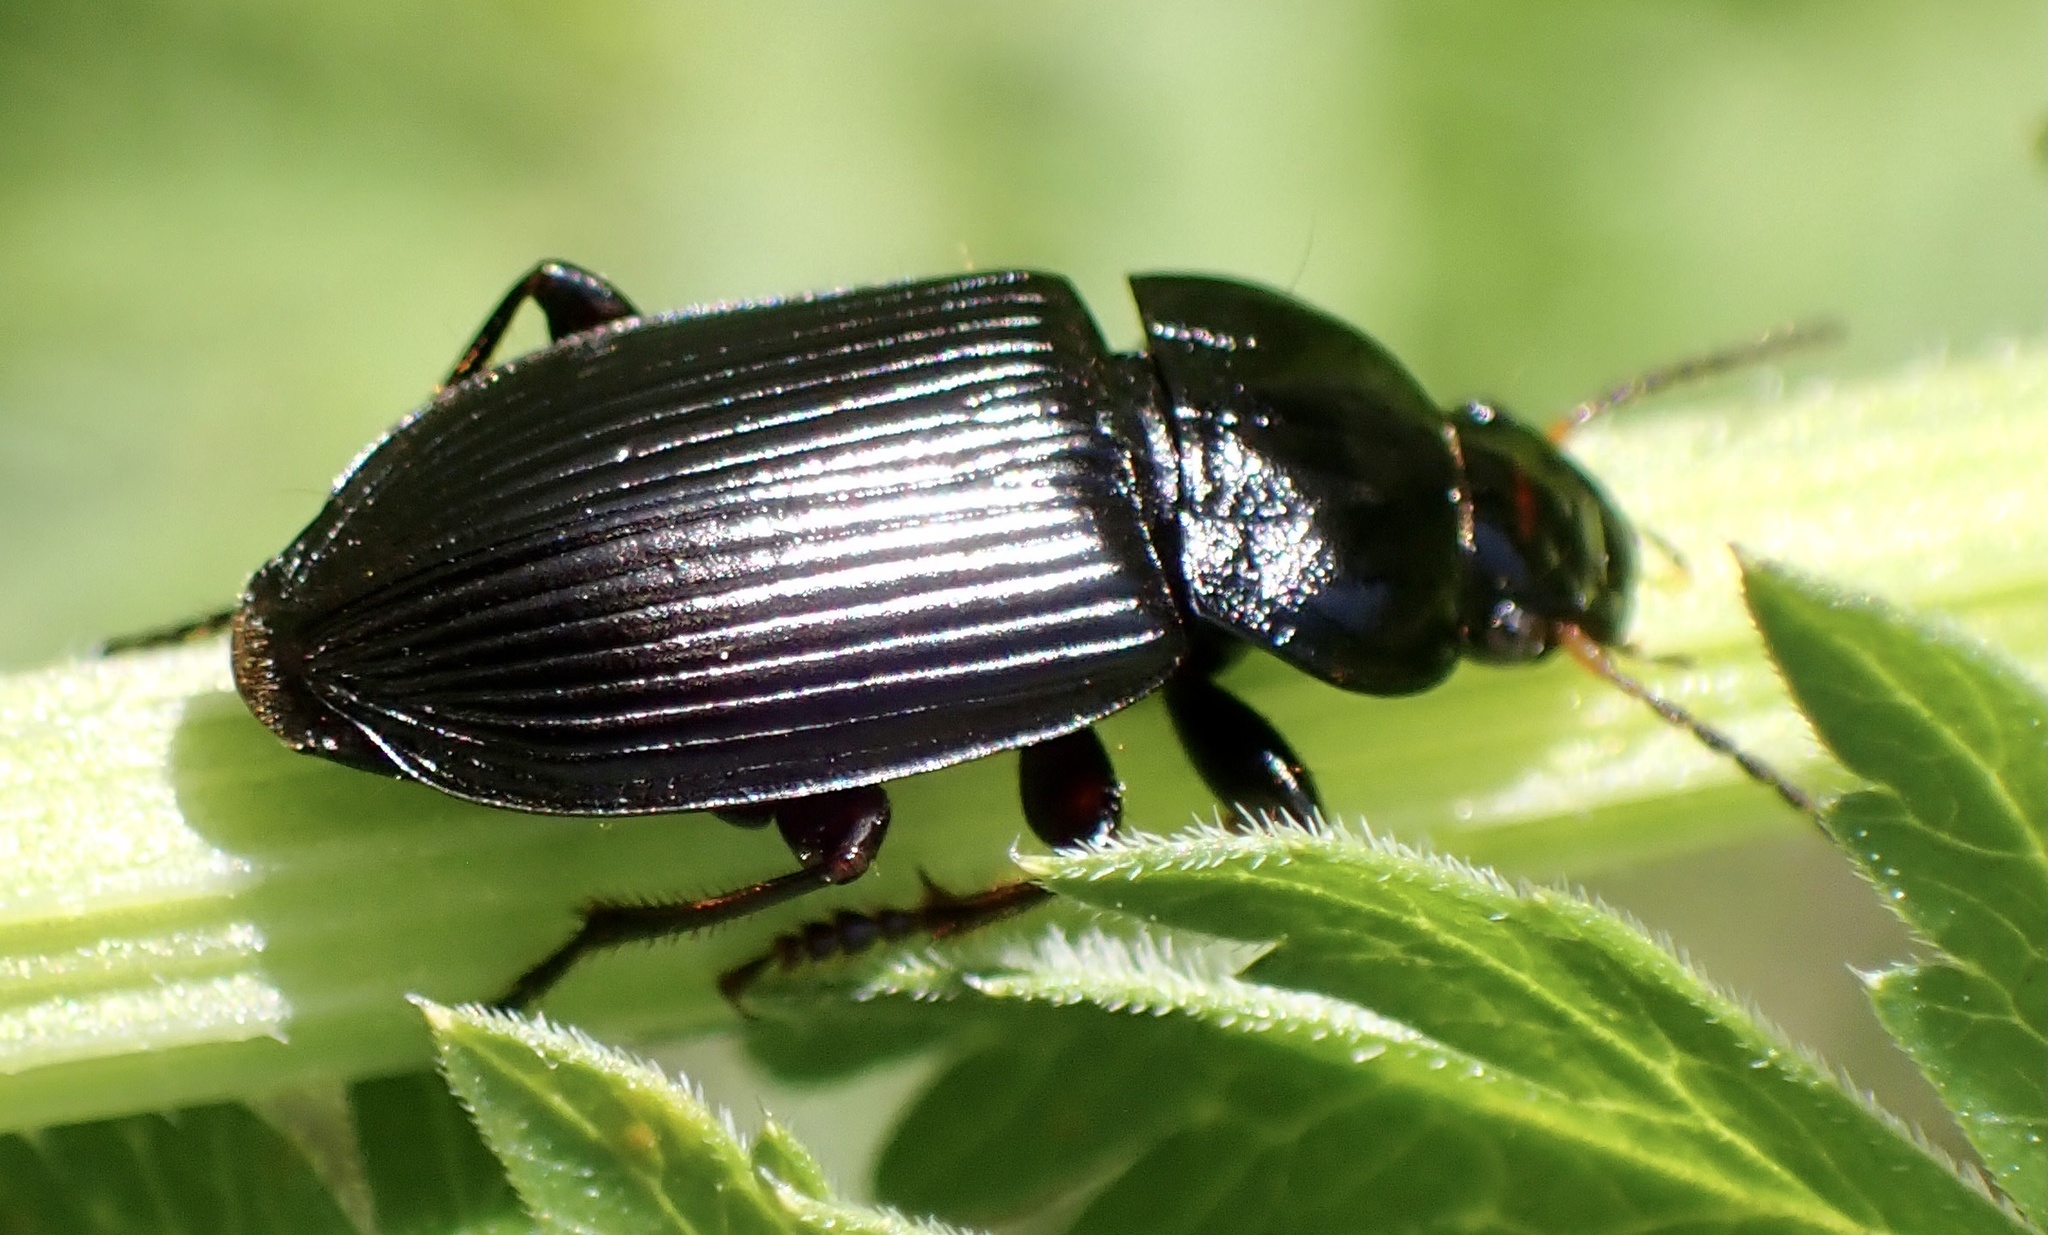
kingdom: Animalia
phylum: Arthropoda
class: Insecta
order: Coleoptera
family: Carabidae
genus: Anisodactylus
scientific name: Anisodactylus binotatus
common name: Two-marked harp ground beetle
